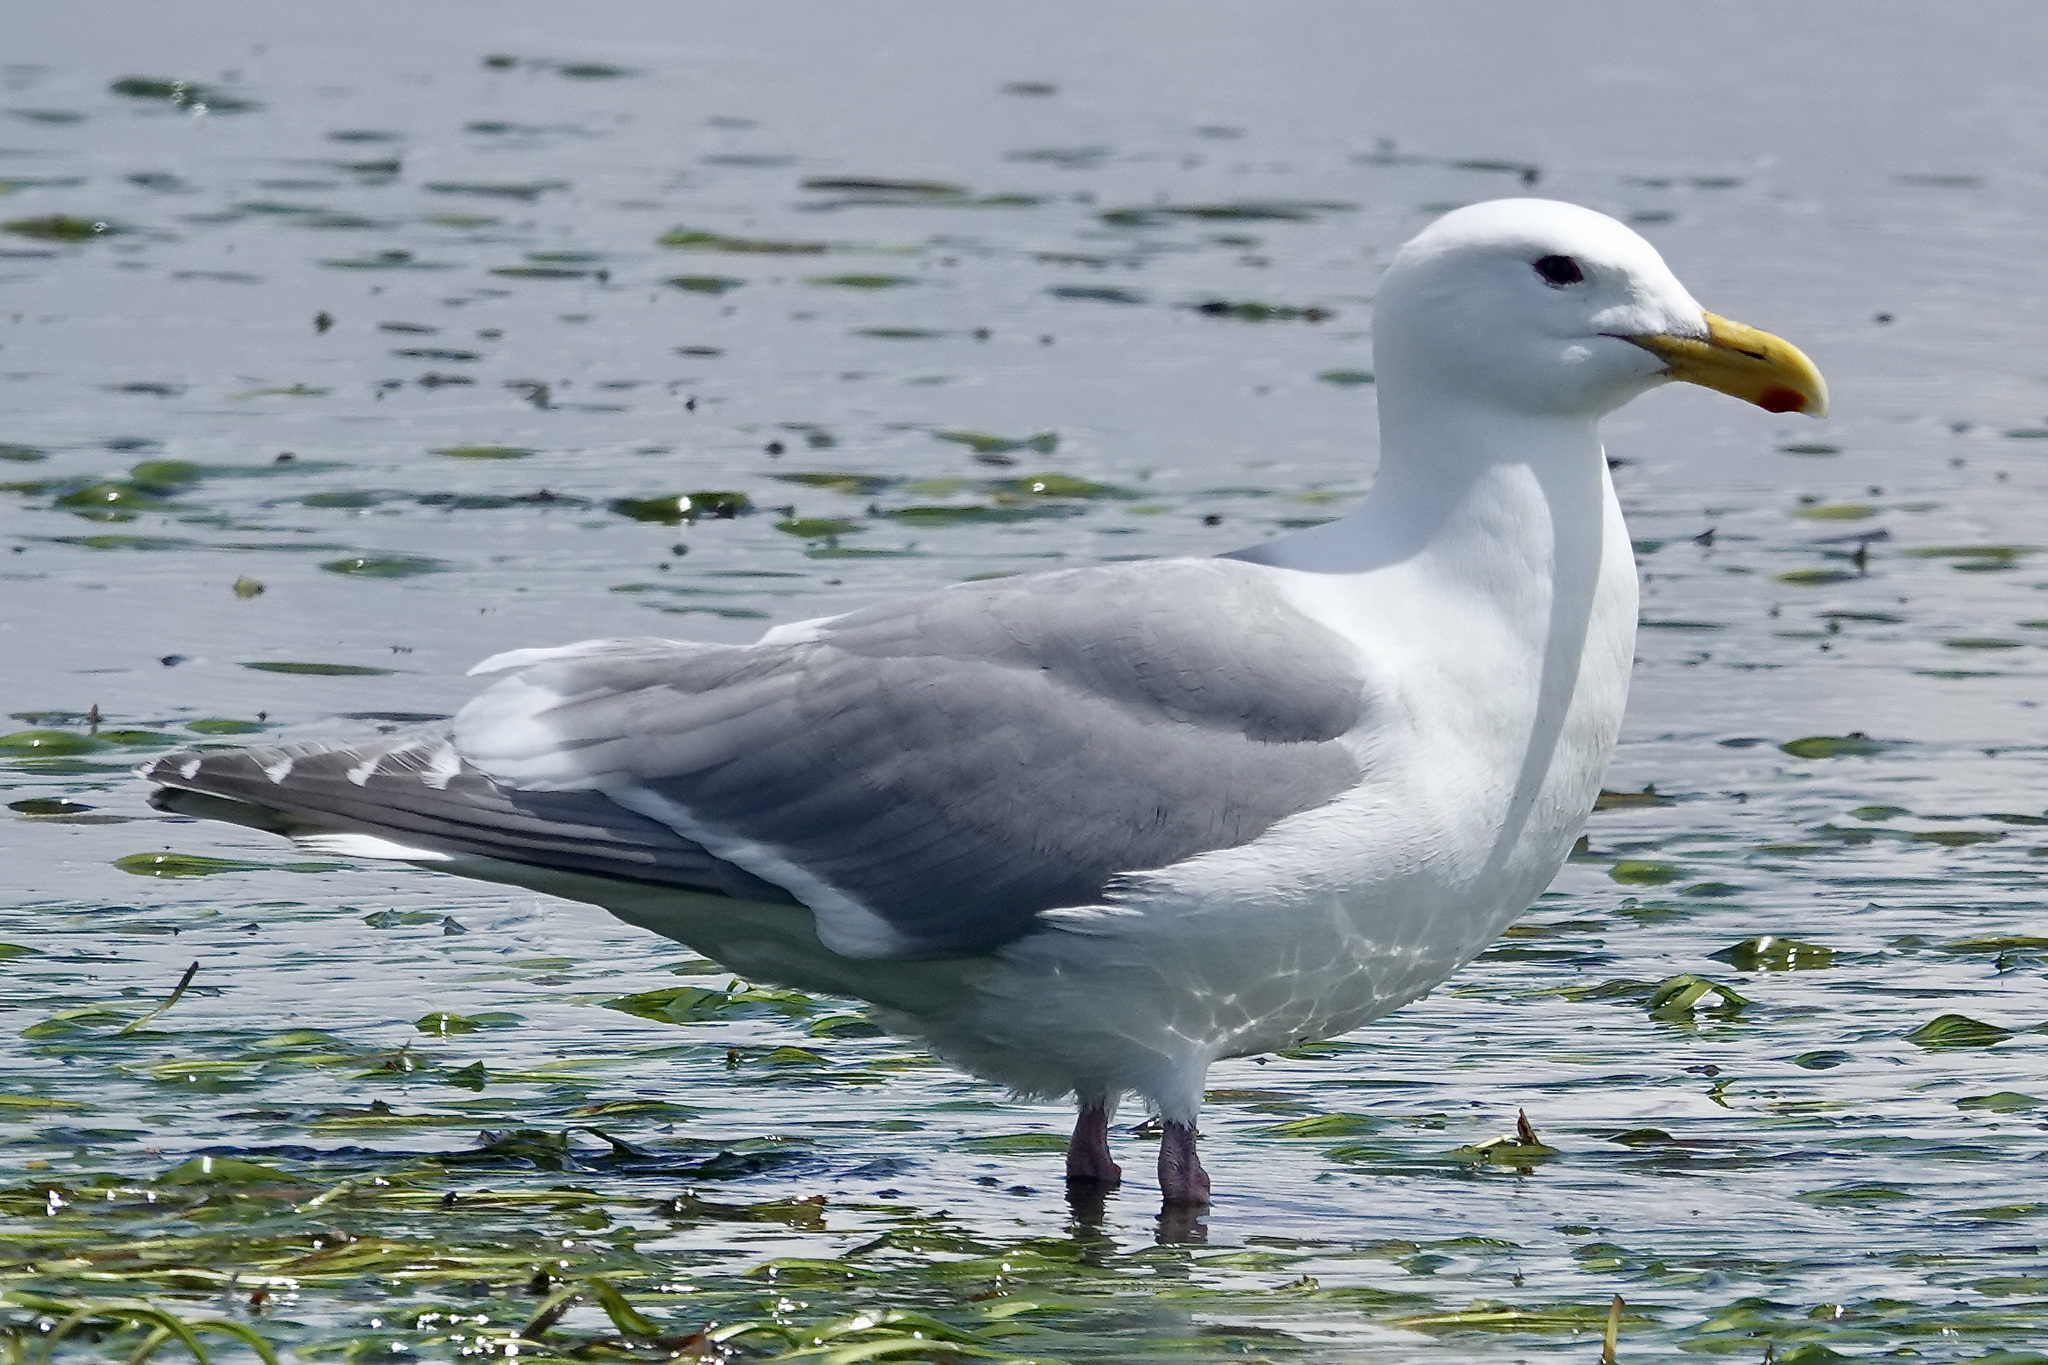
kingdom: Animalia
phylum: Chordata
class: Aves
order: Charadriiformes
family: Laridae
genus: Larus
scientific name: Larus
